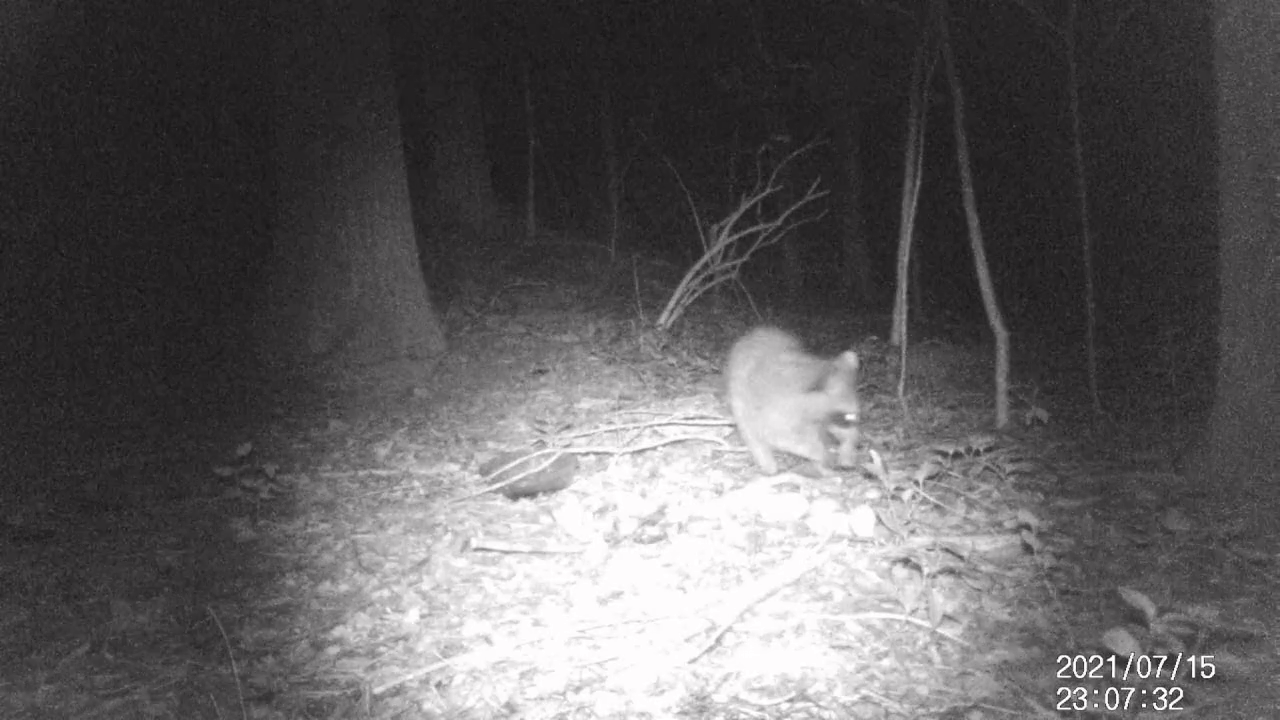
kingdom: Animalia
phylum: Chordata
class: Mammalia
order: Carnivora
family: Procyonidae
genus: Procyon
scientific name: Procyon lotor
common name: Raccoon
